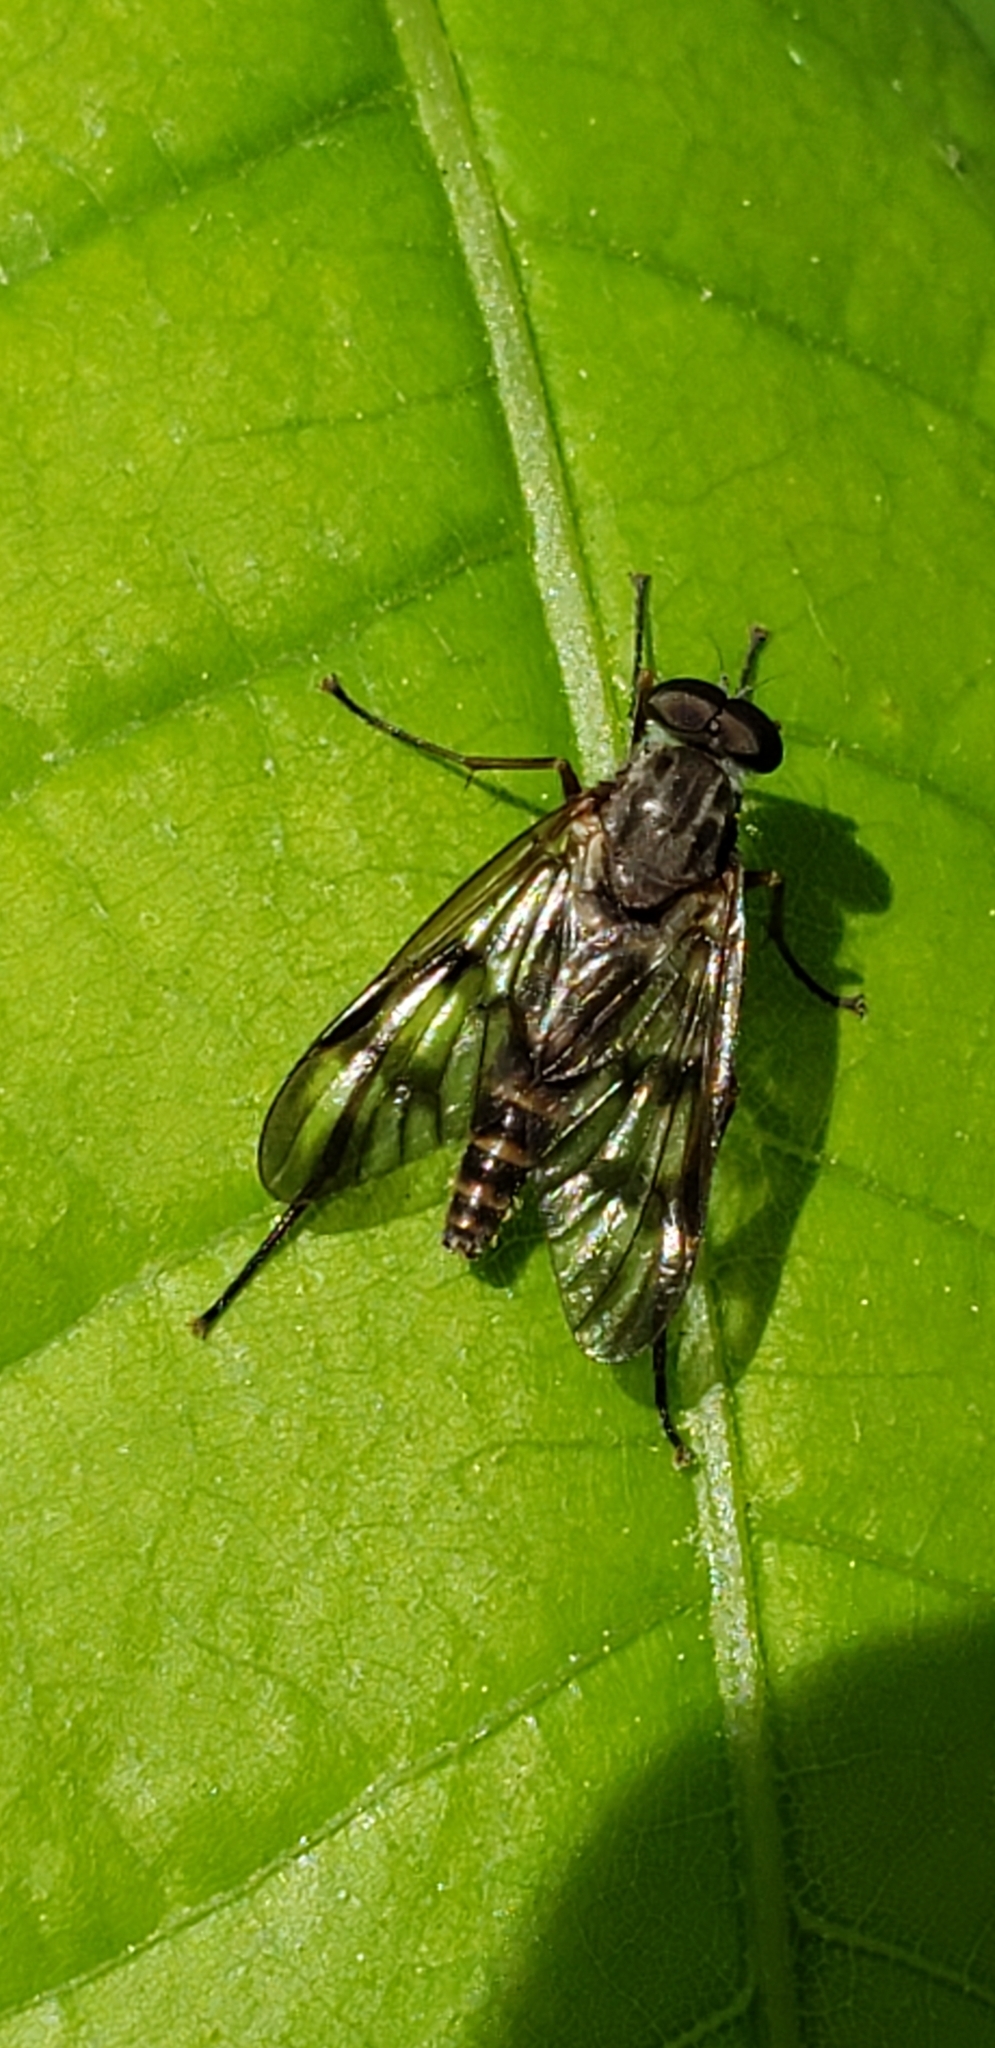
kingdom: Animalia
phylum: Arthropoda
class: Insecta
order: Diptera
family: Rhagionidae
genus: Rhagio
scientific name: Rhagio mystaceus
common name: Common snipe fly
